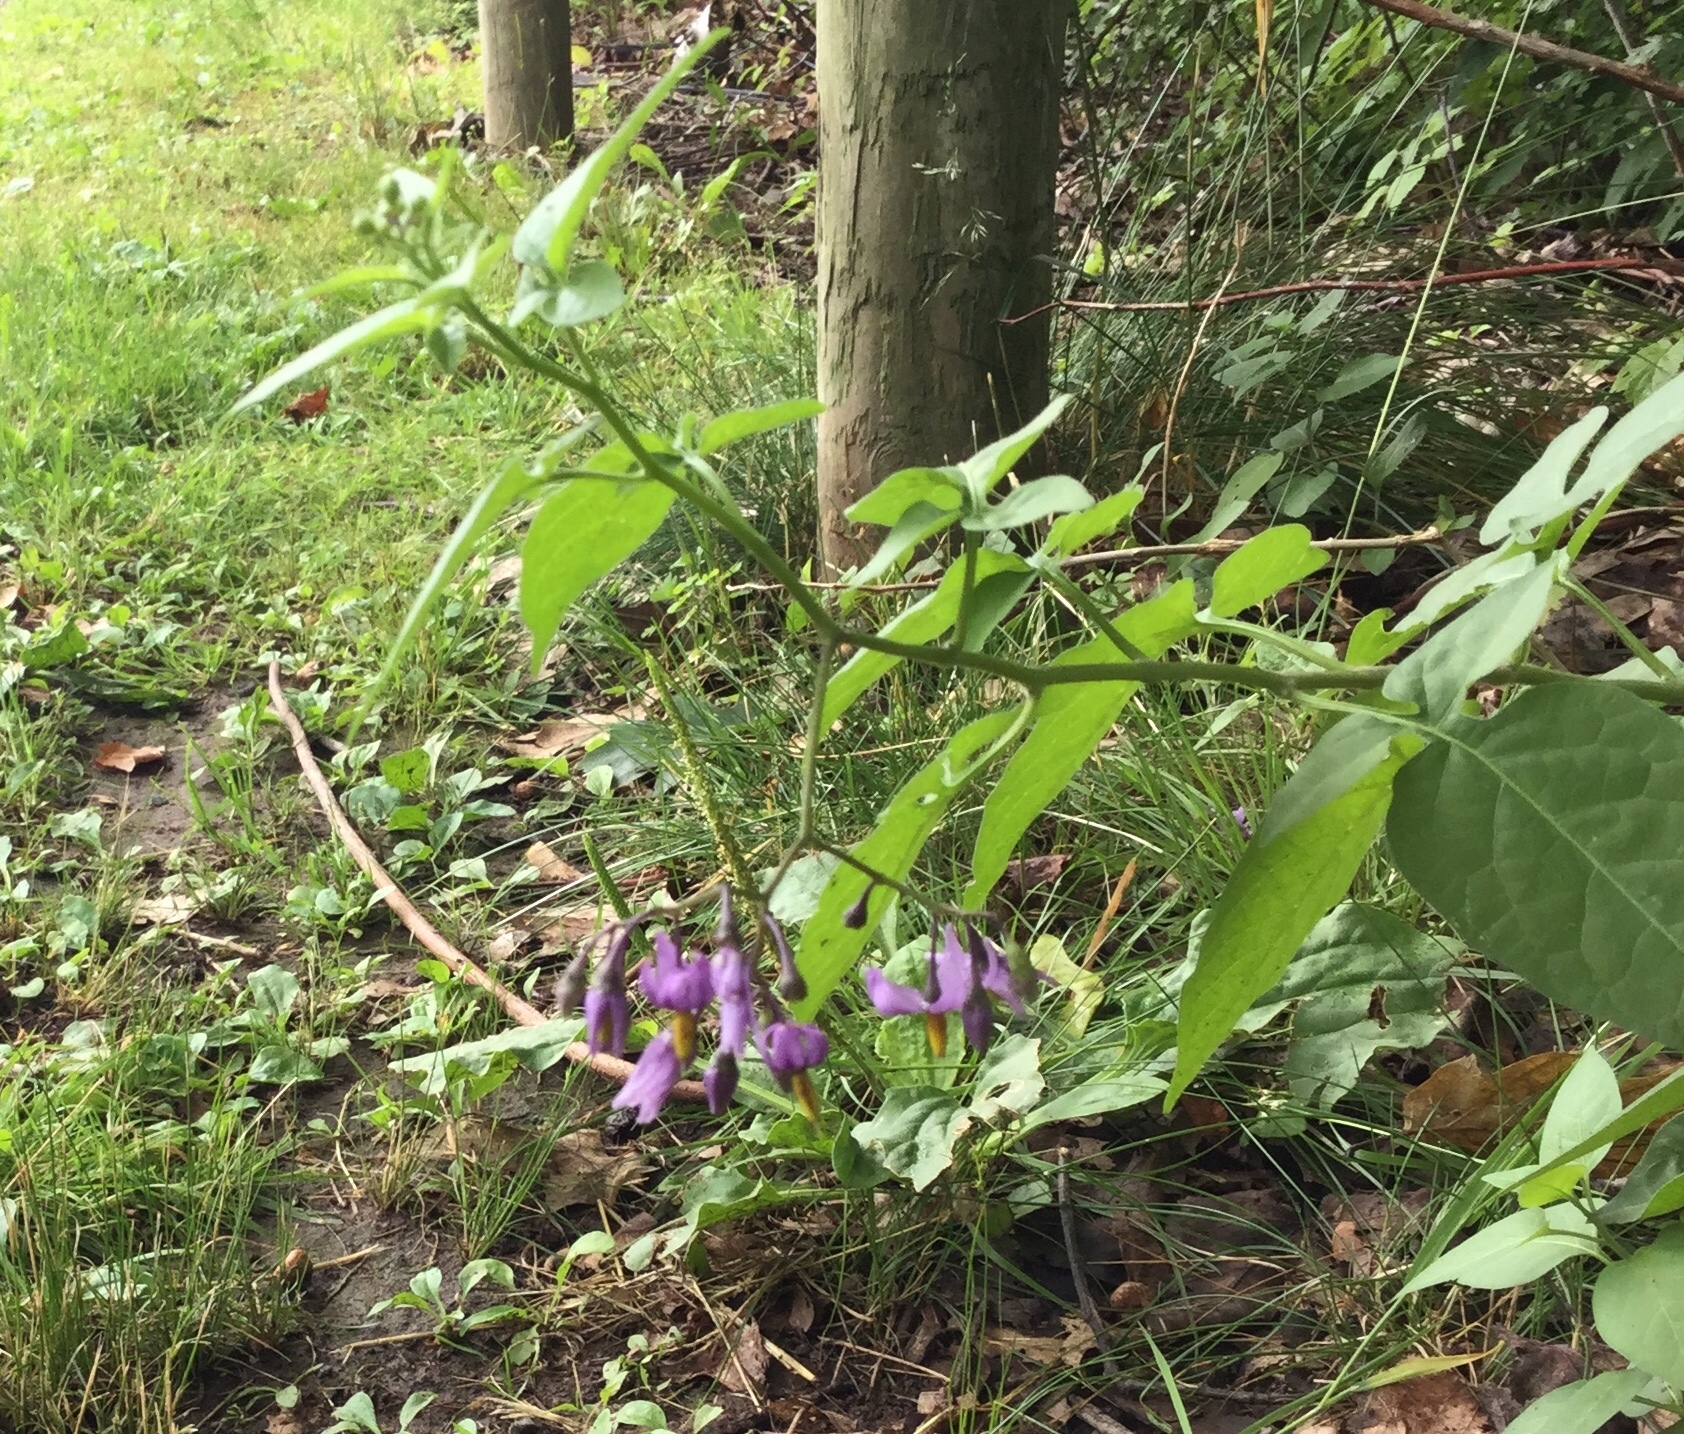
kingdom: Plantae
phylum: Tracheophyta
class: Magnoliopsida
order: Solanales
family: Solanaceae
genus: Solanum
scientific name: Solanum dulcamara
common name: Climbing nightshade
